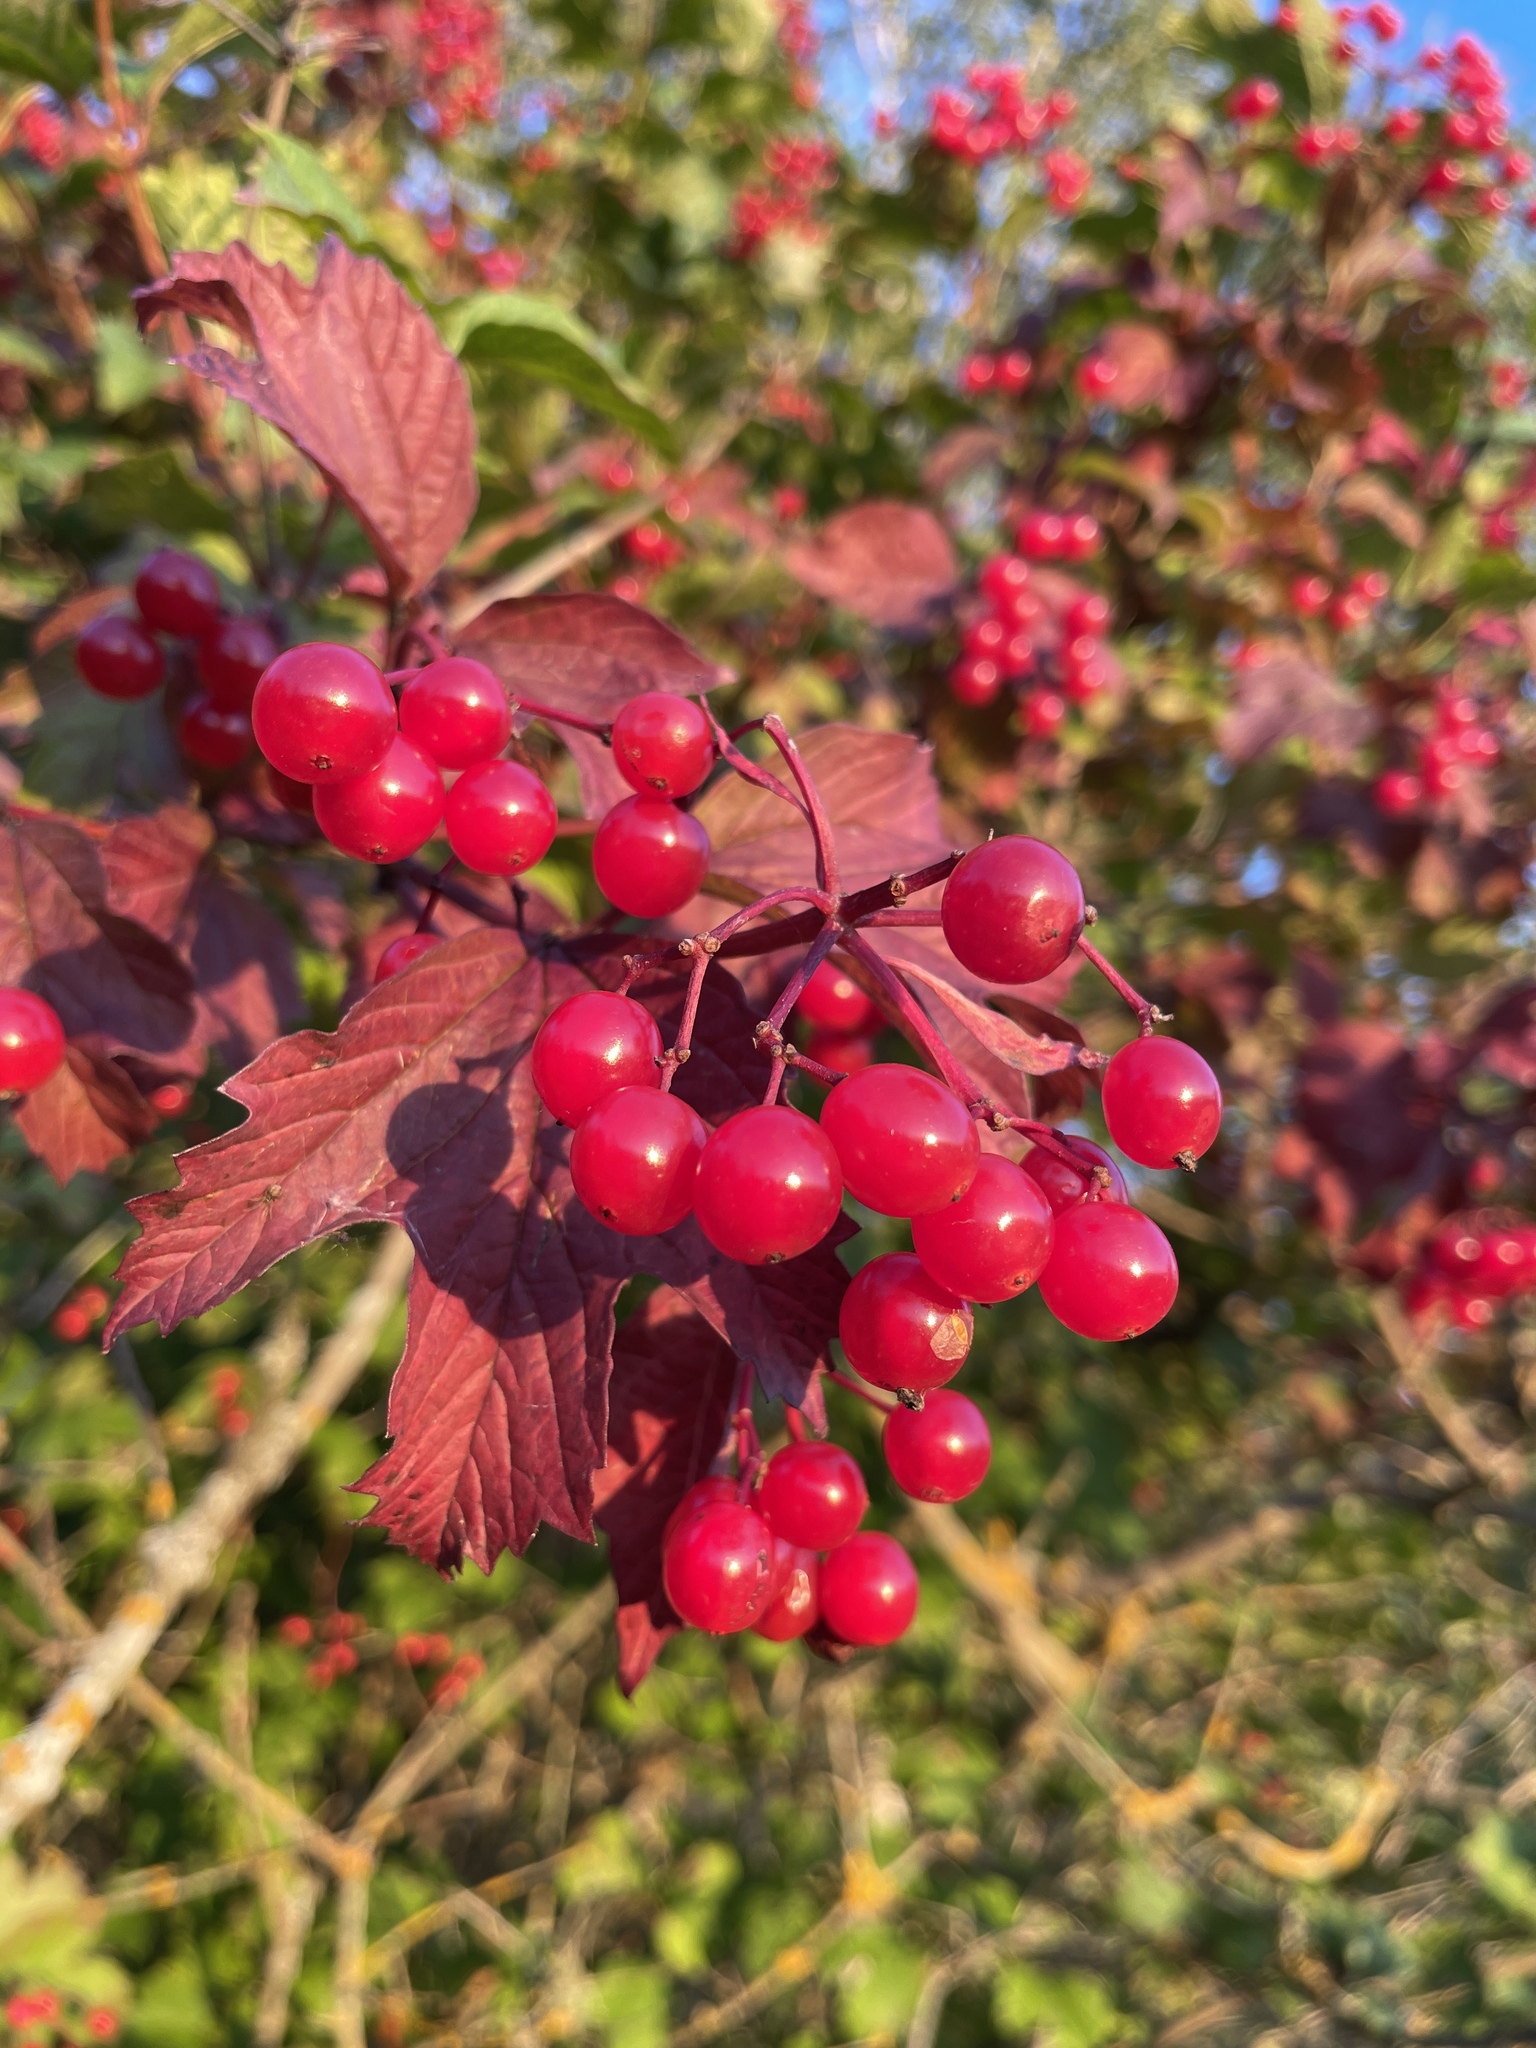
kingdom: Plantae
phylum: Tracheophyta
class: Magnoliopsida
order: Dipsacales
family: Viburnaceae
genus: Viburnum
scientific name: Viburnum opulus
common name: Guelder-rose
